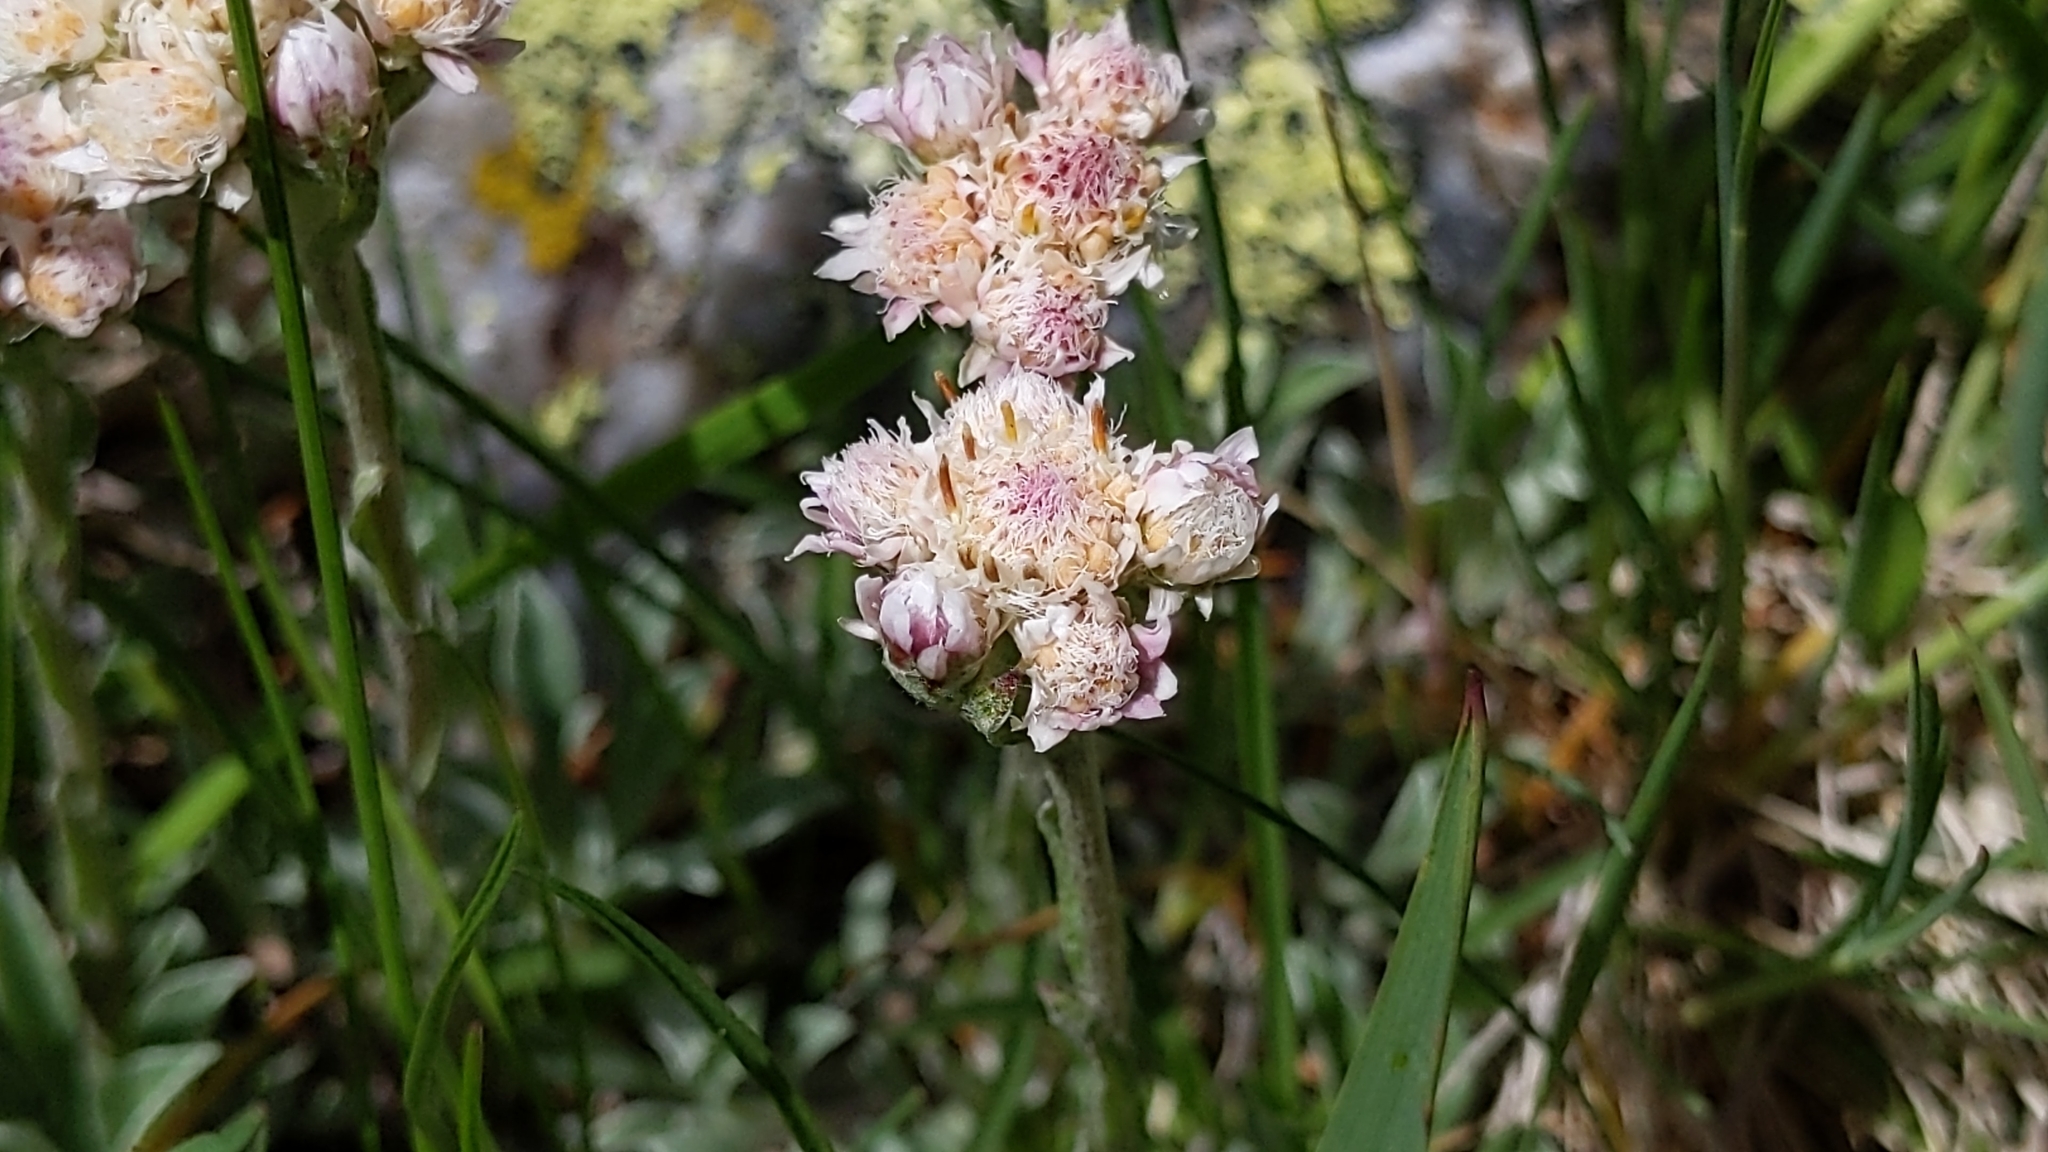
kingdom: Plantae
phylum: Tracheophyta
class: Magnoliopsida
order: Asterales
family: Asteraceae
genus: Antennaria
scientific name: Antennaria dioica
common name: Mountain everlasting
